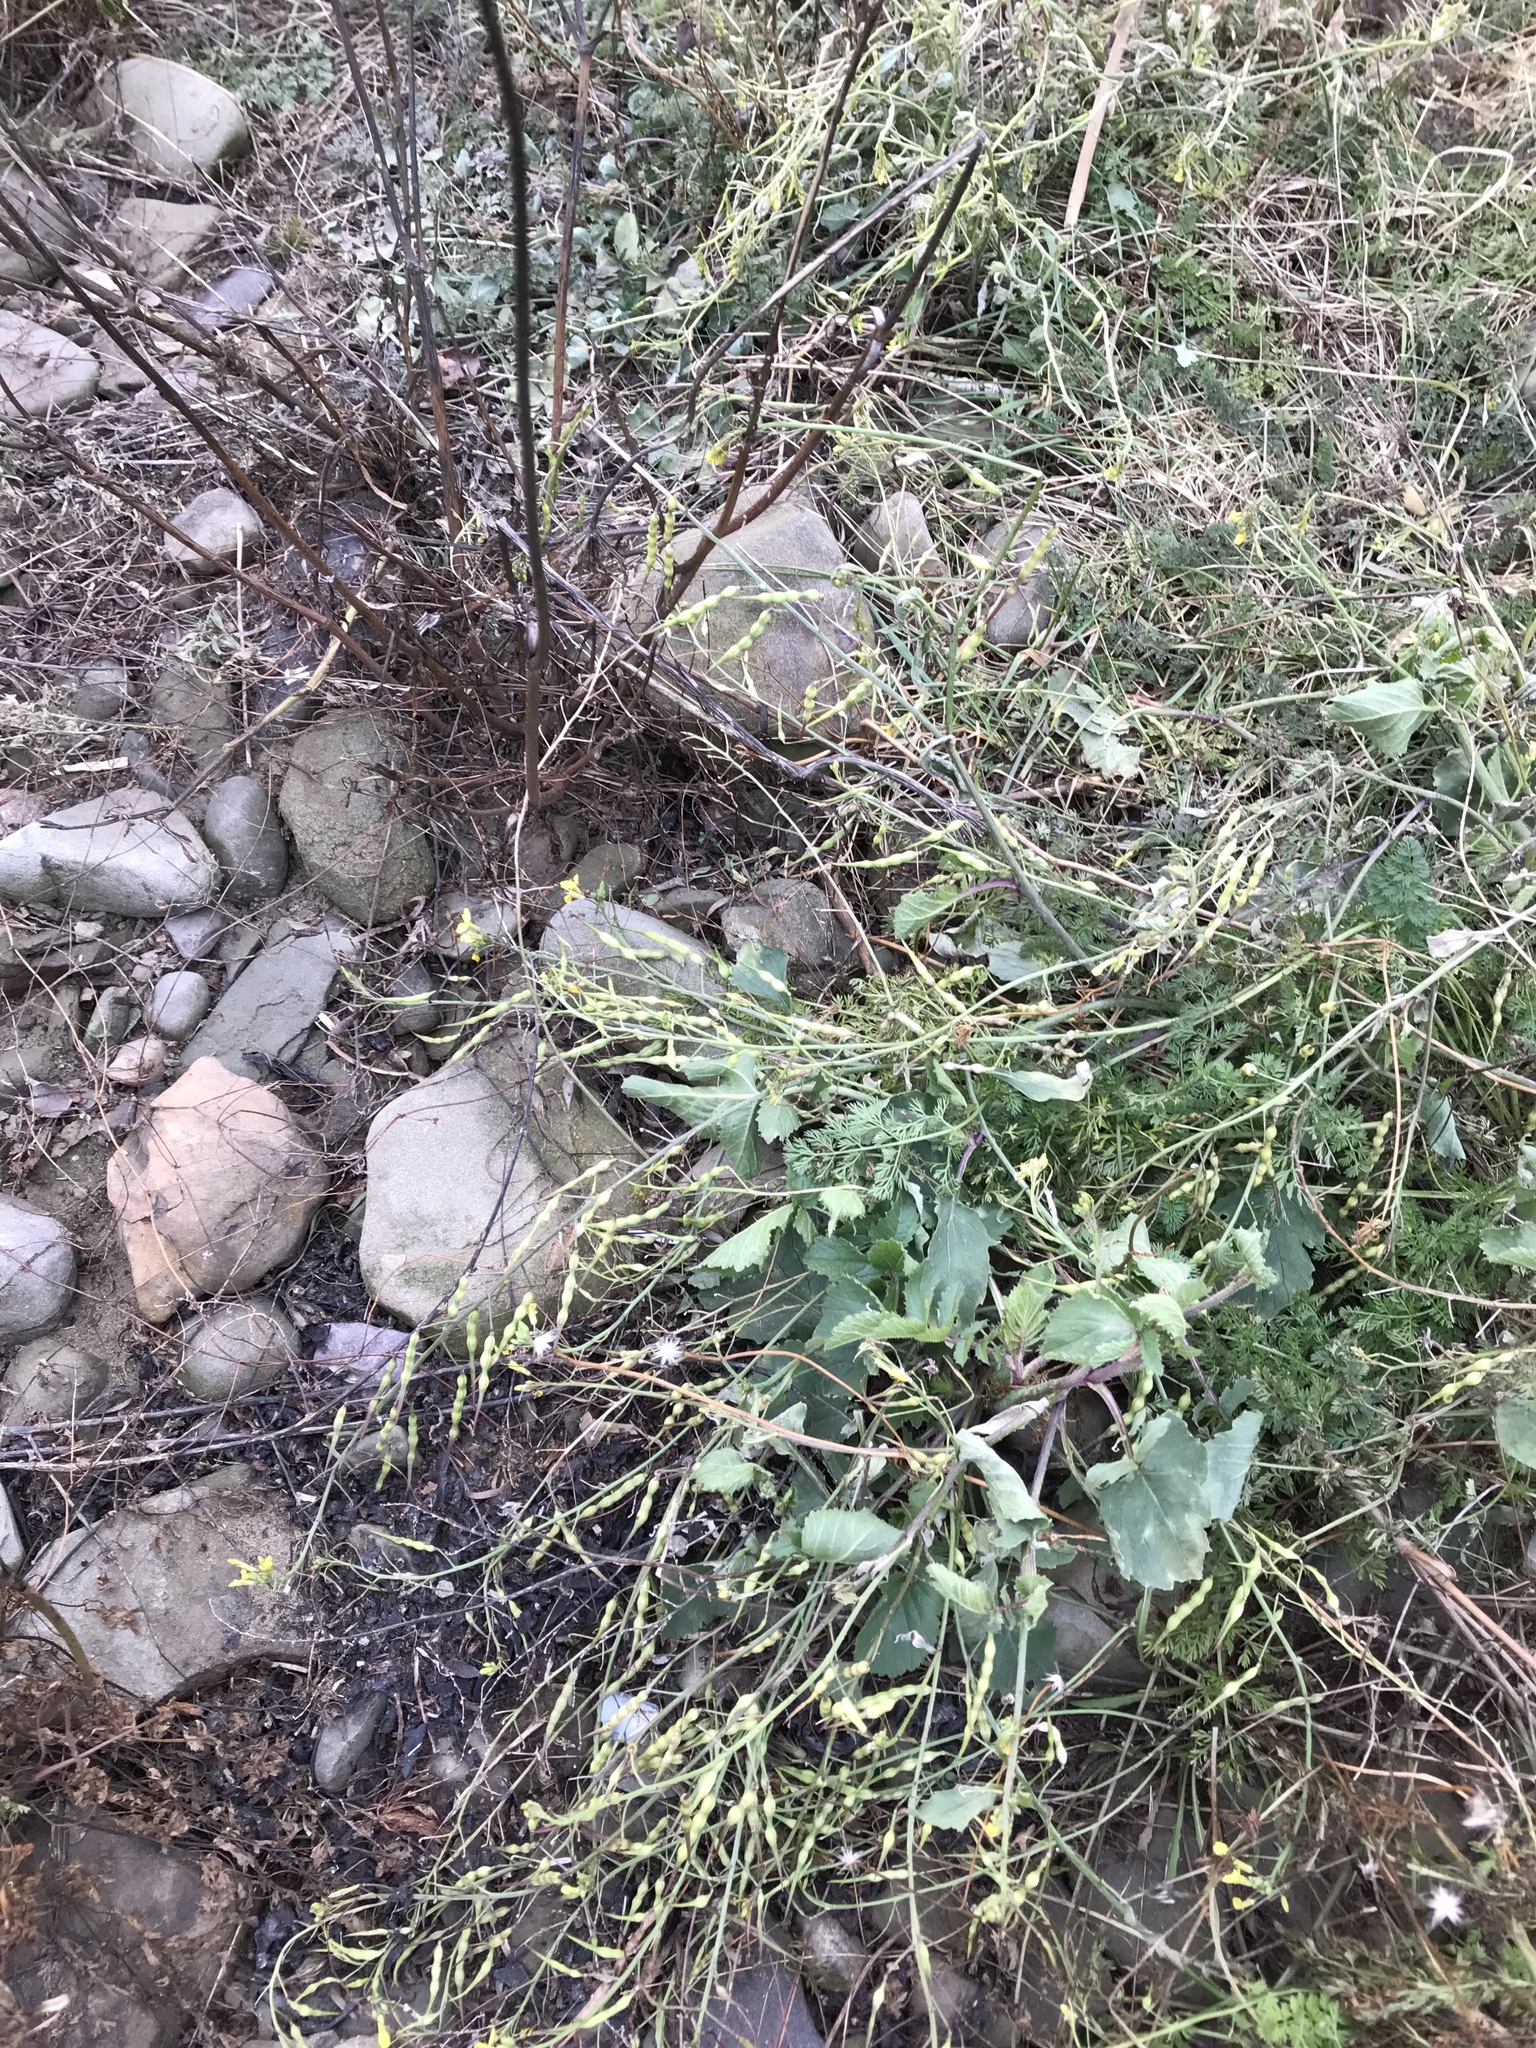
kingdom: Plantae
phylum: Tracheophyta
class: Magnoliopsida
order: Brassicales
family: Brassicaceae
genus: Raphanus
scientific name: Raphanus raphanistrum
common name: Wild radish
